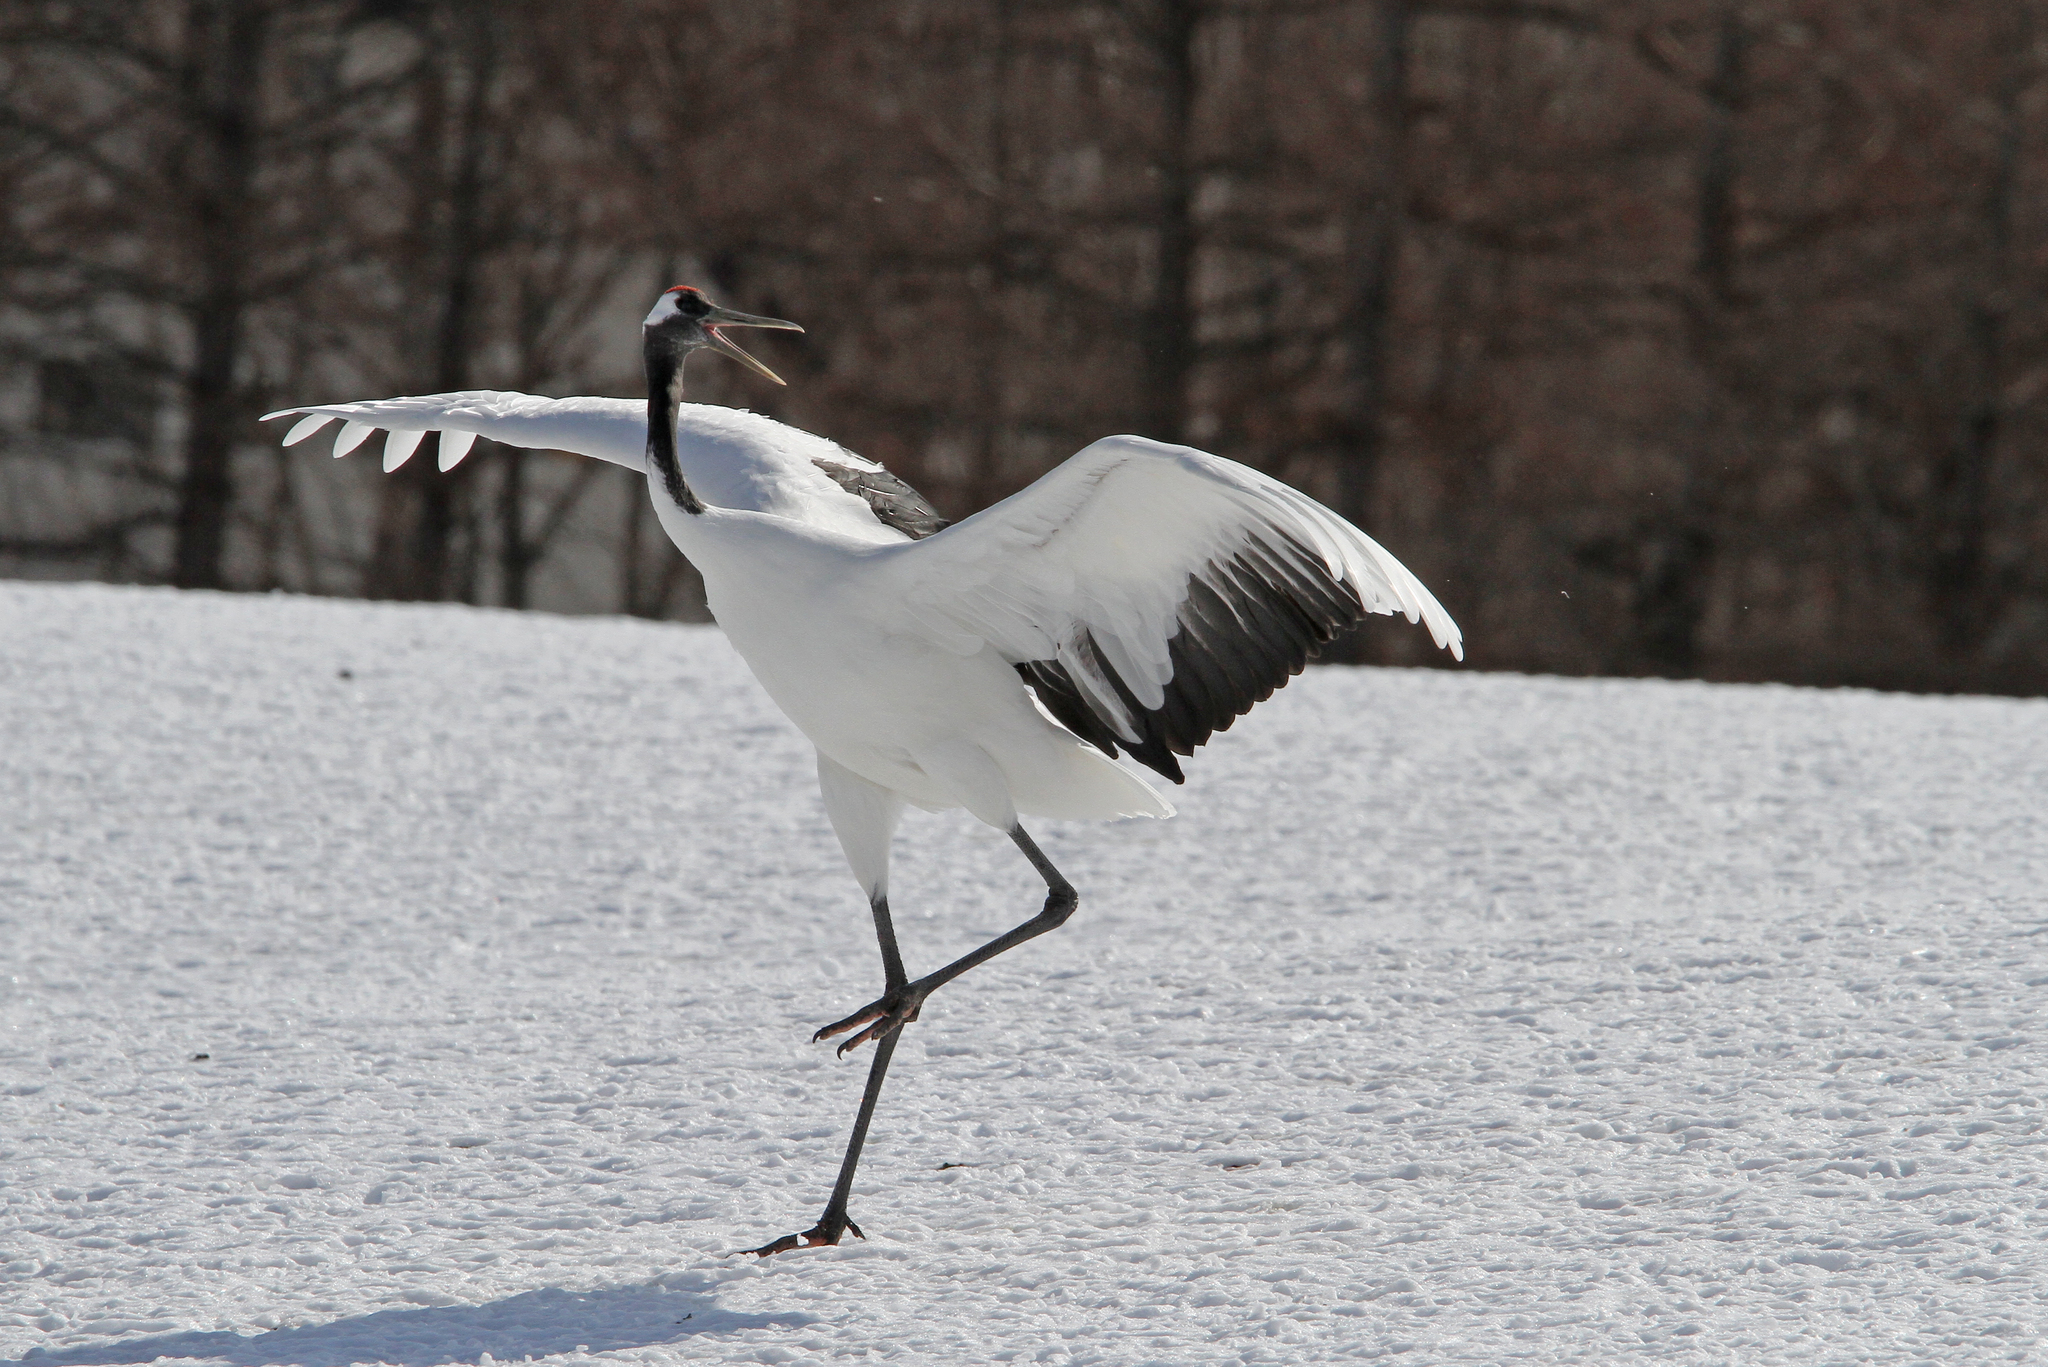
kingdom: Animalia
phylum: Chordata
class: Aves
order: Gruiformes
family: Gruidae
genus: Grus
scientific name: Grus japonensis
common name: Red-crowned crane
